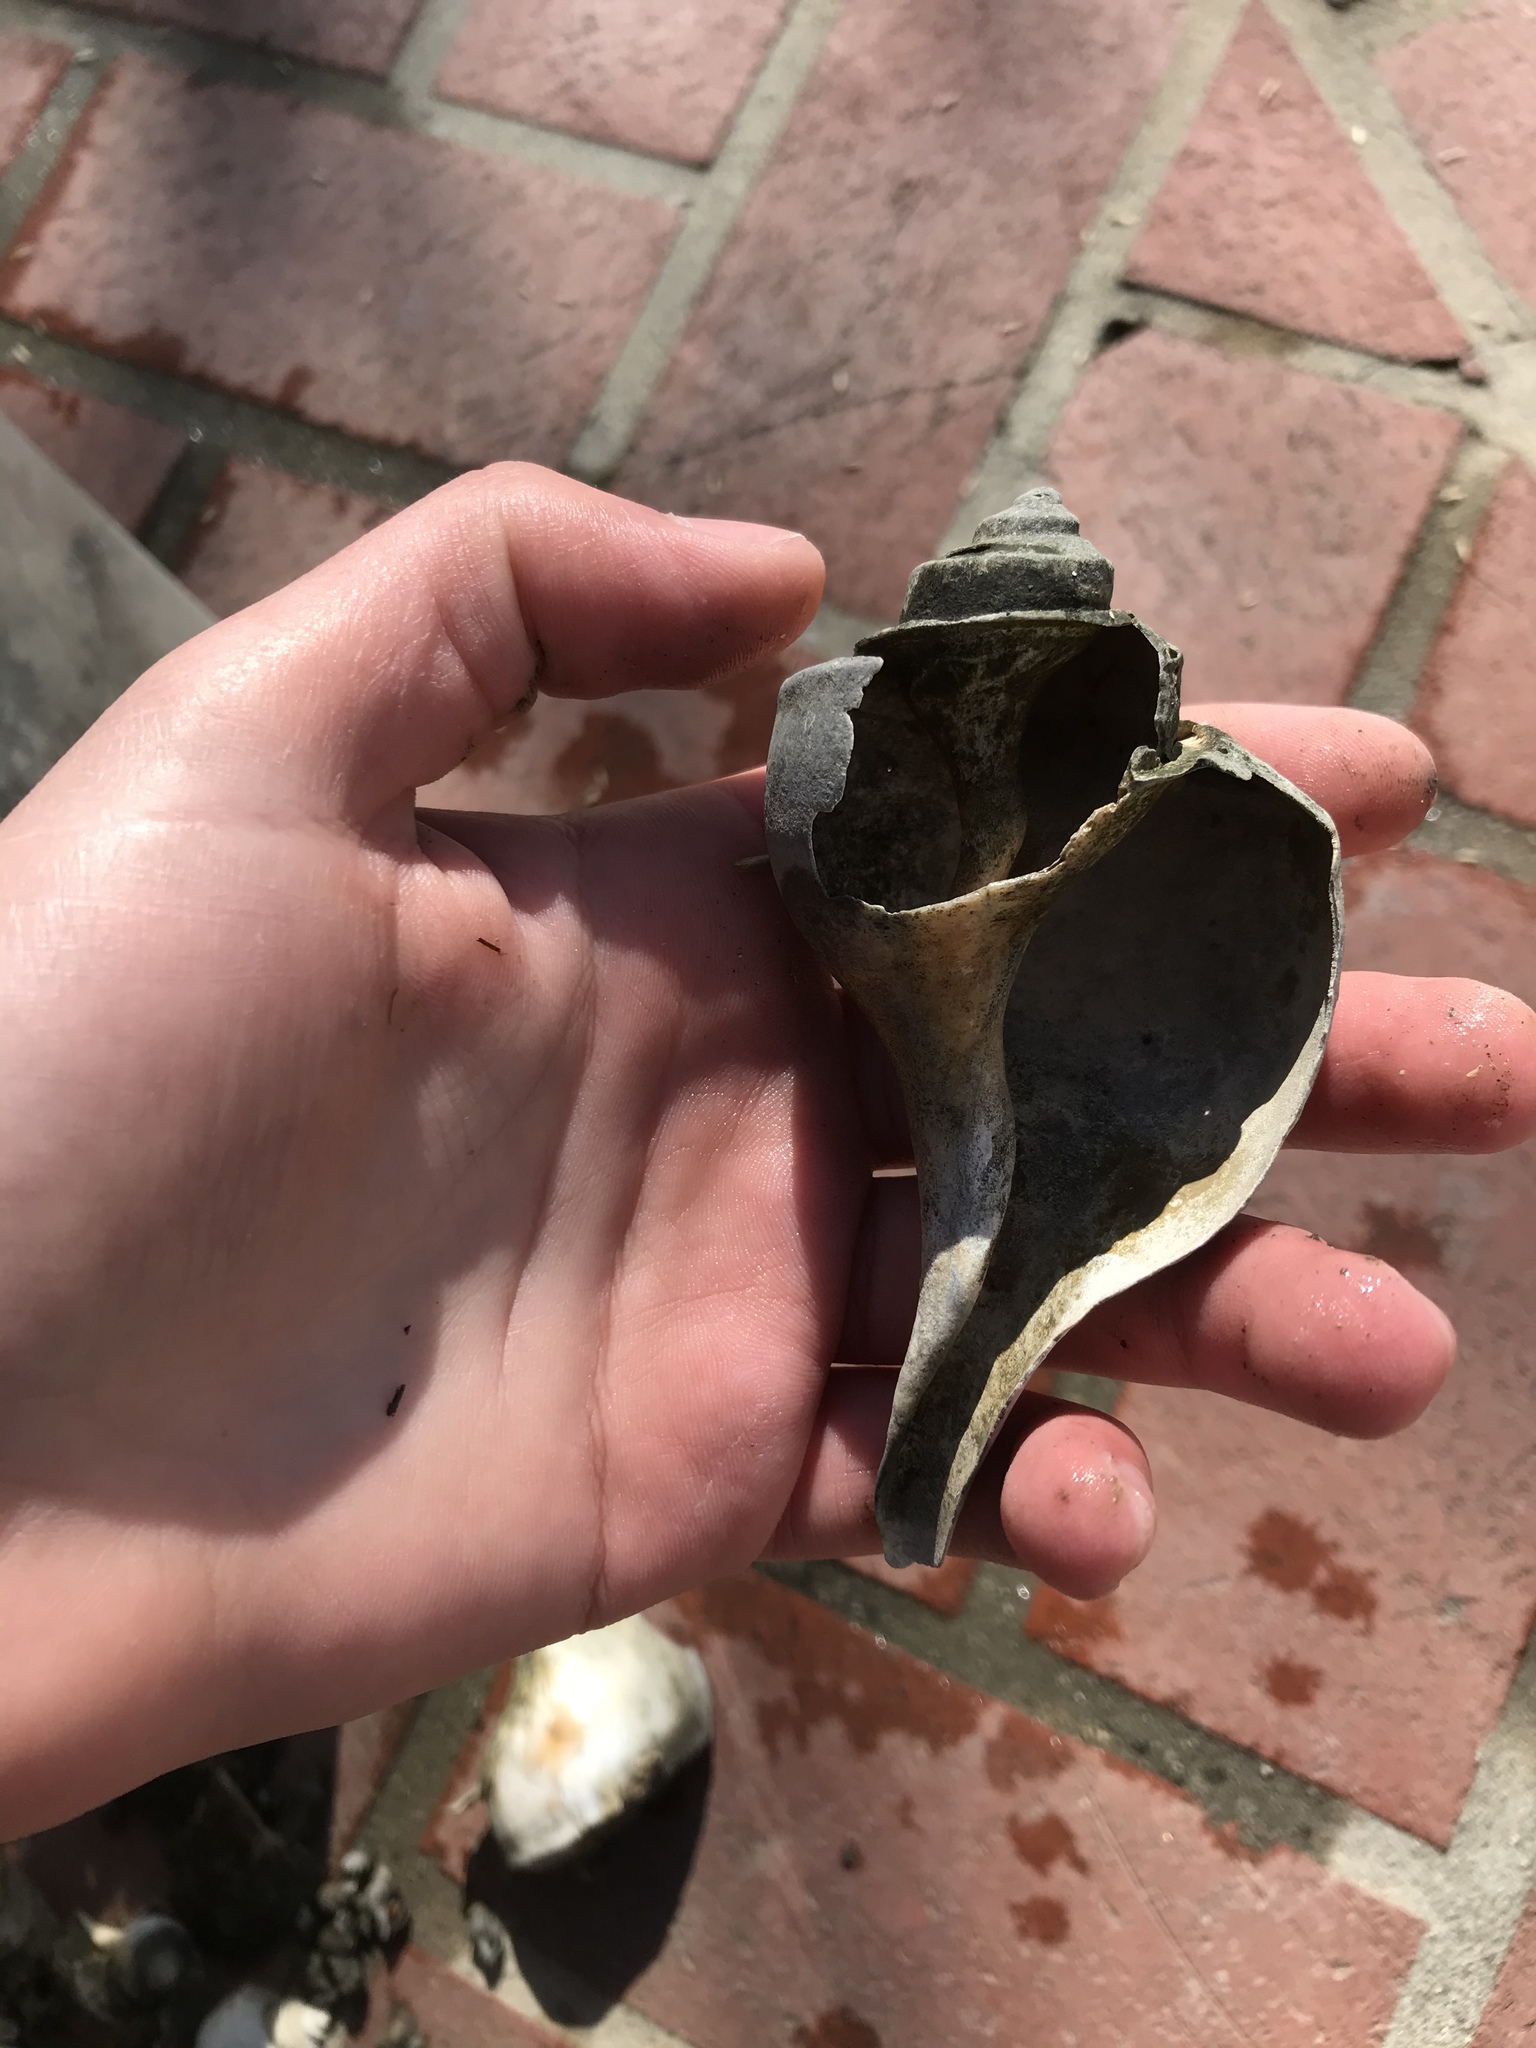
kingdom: Animalia
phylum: Mollusca
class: Gastropoda
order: Neogastropoda
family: Busyconidae
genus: Busycotypus
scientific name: Busycotypus canaliculatus
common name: Channeled whelk
